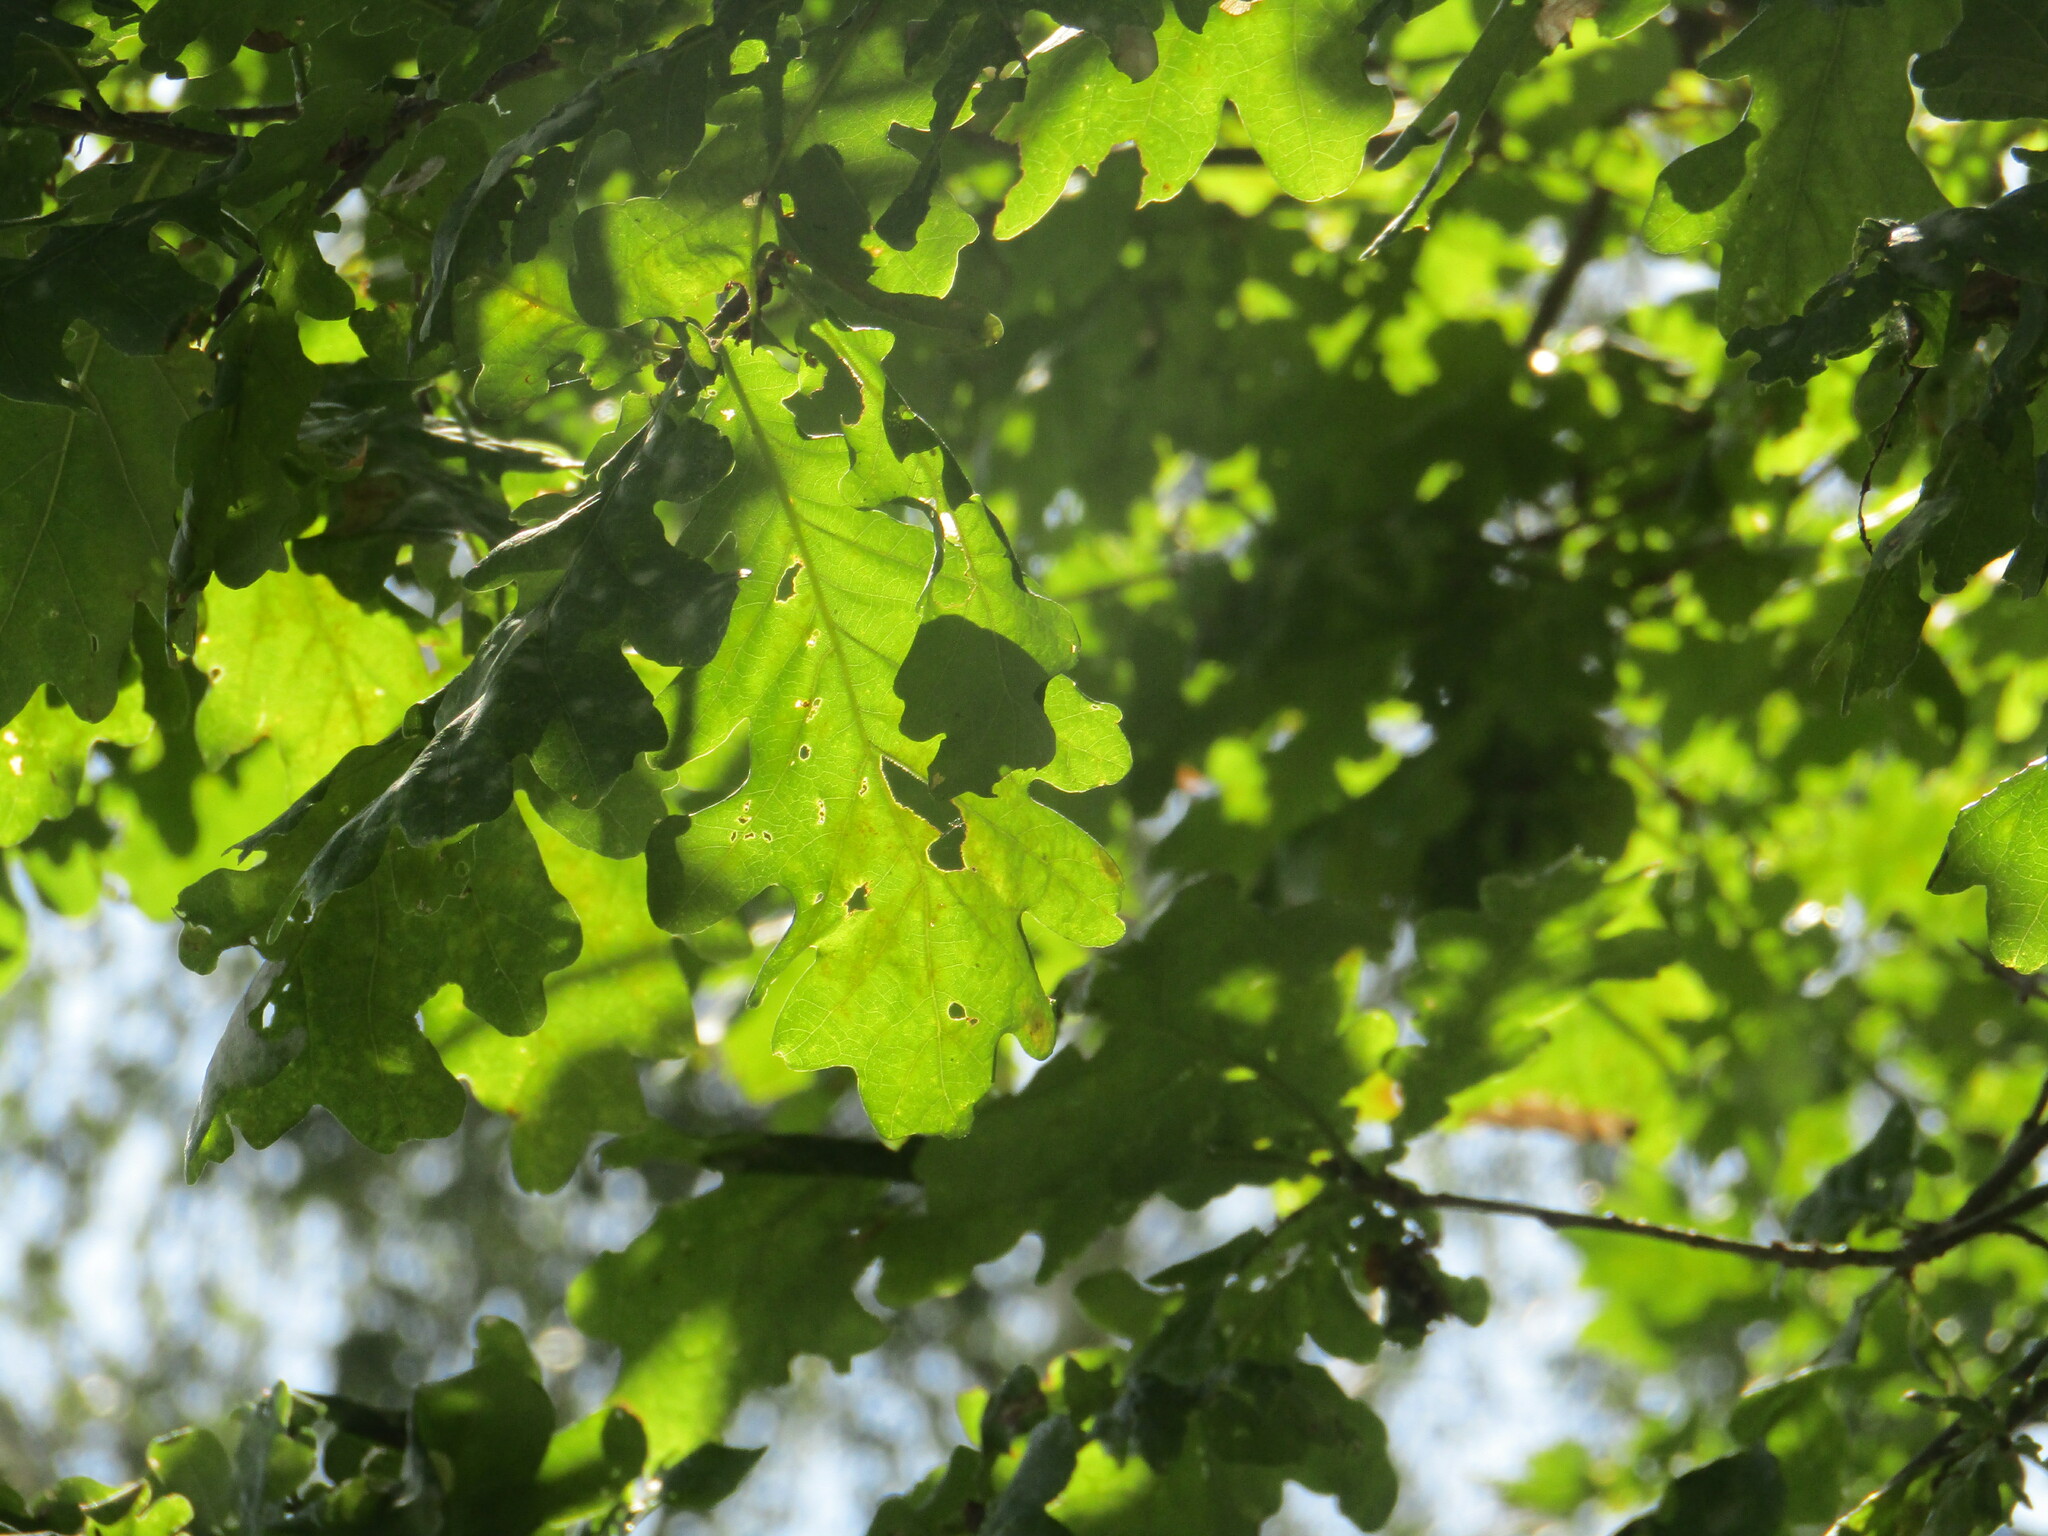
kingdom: Plantae
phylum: Tracheophyta
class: Magnoliopsida
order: Fagales
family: Fagaceae
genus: Quercus
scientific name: Quercus robur
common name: Pedunculate oak
